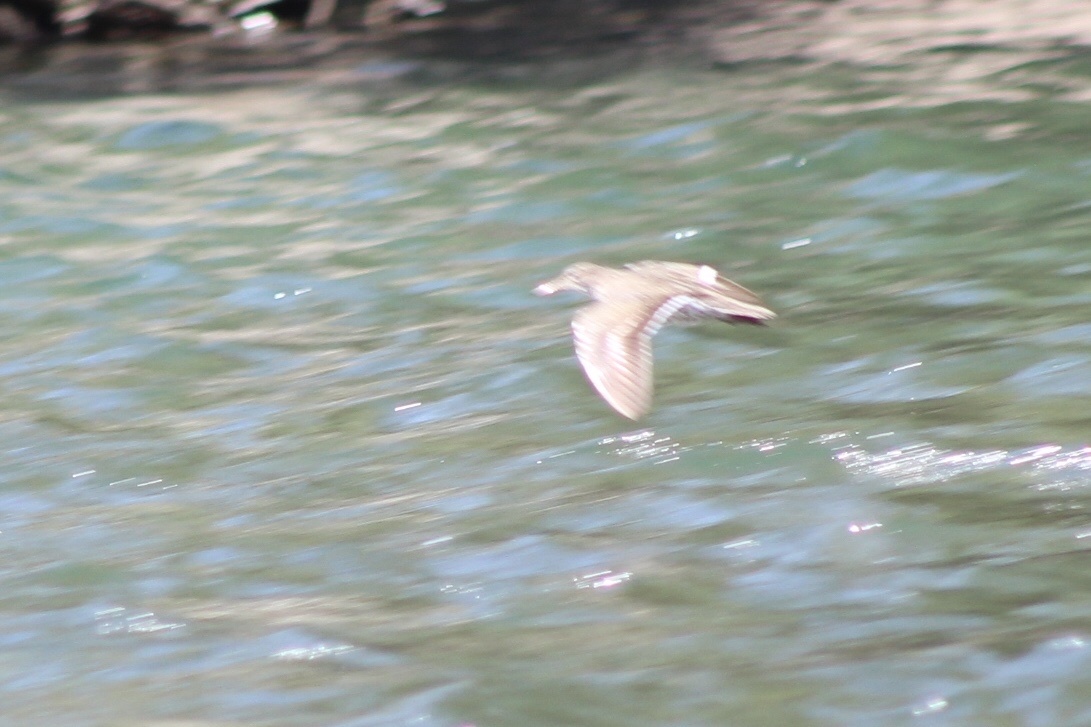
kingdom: Animalia
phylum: Chordata
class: Aves
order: Charadriiformes
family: Scolopacidae
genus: Actitis
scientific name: Actitis macularius
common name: Spotted sandpiper
